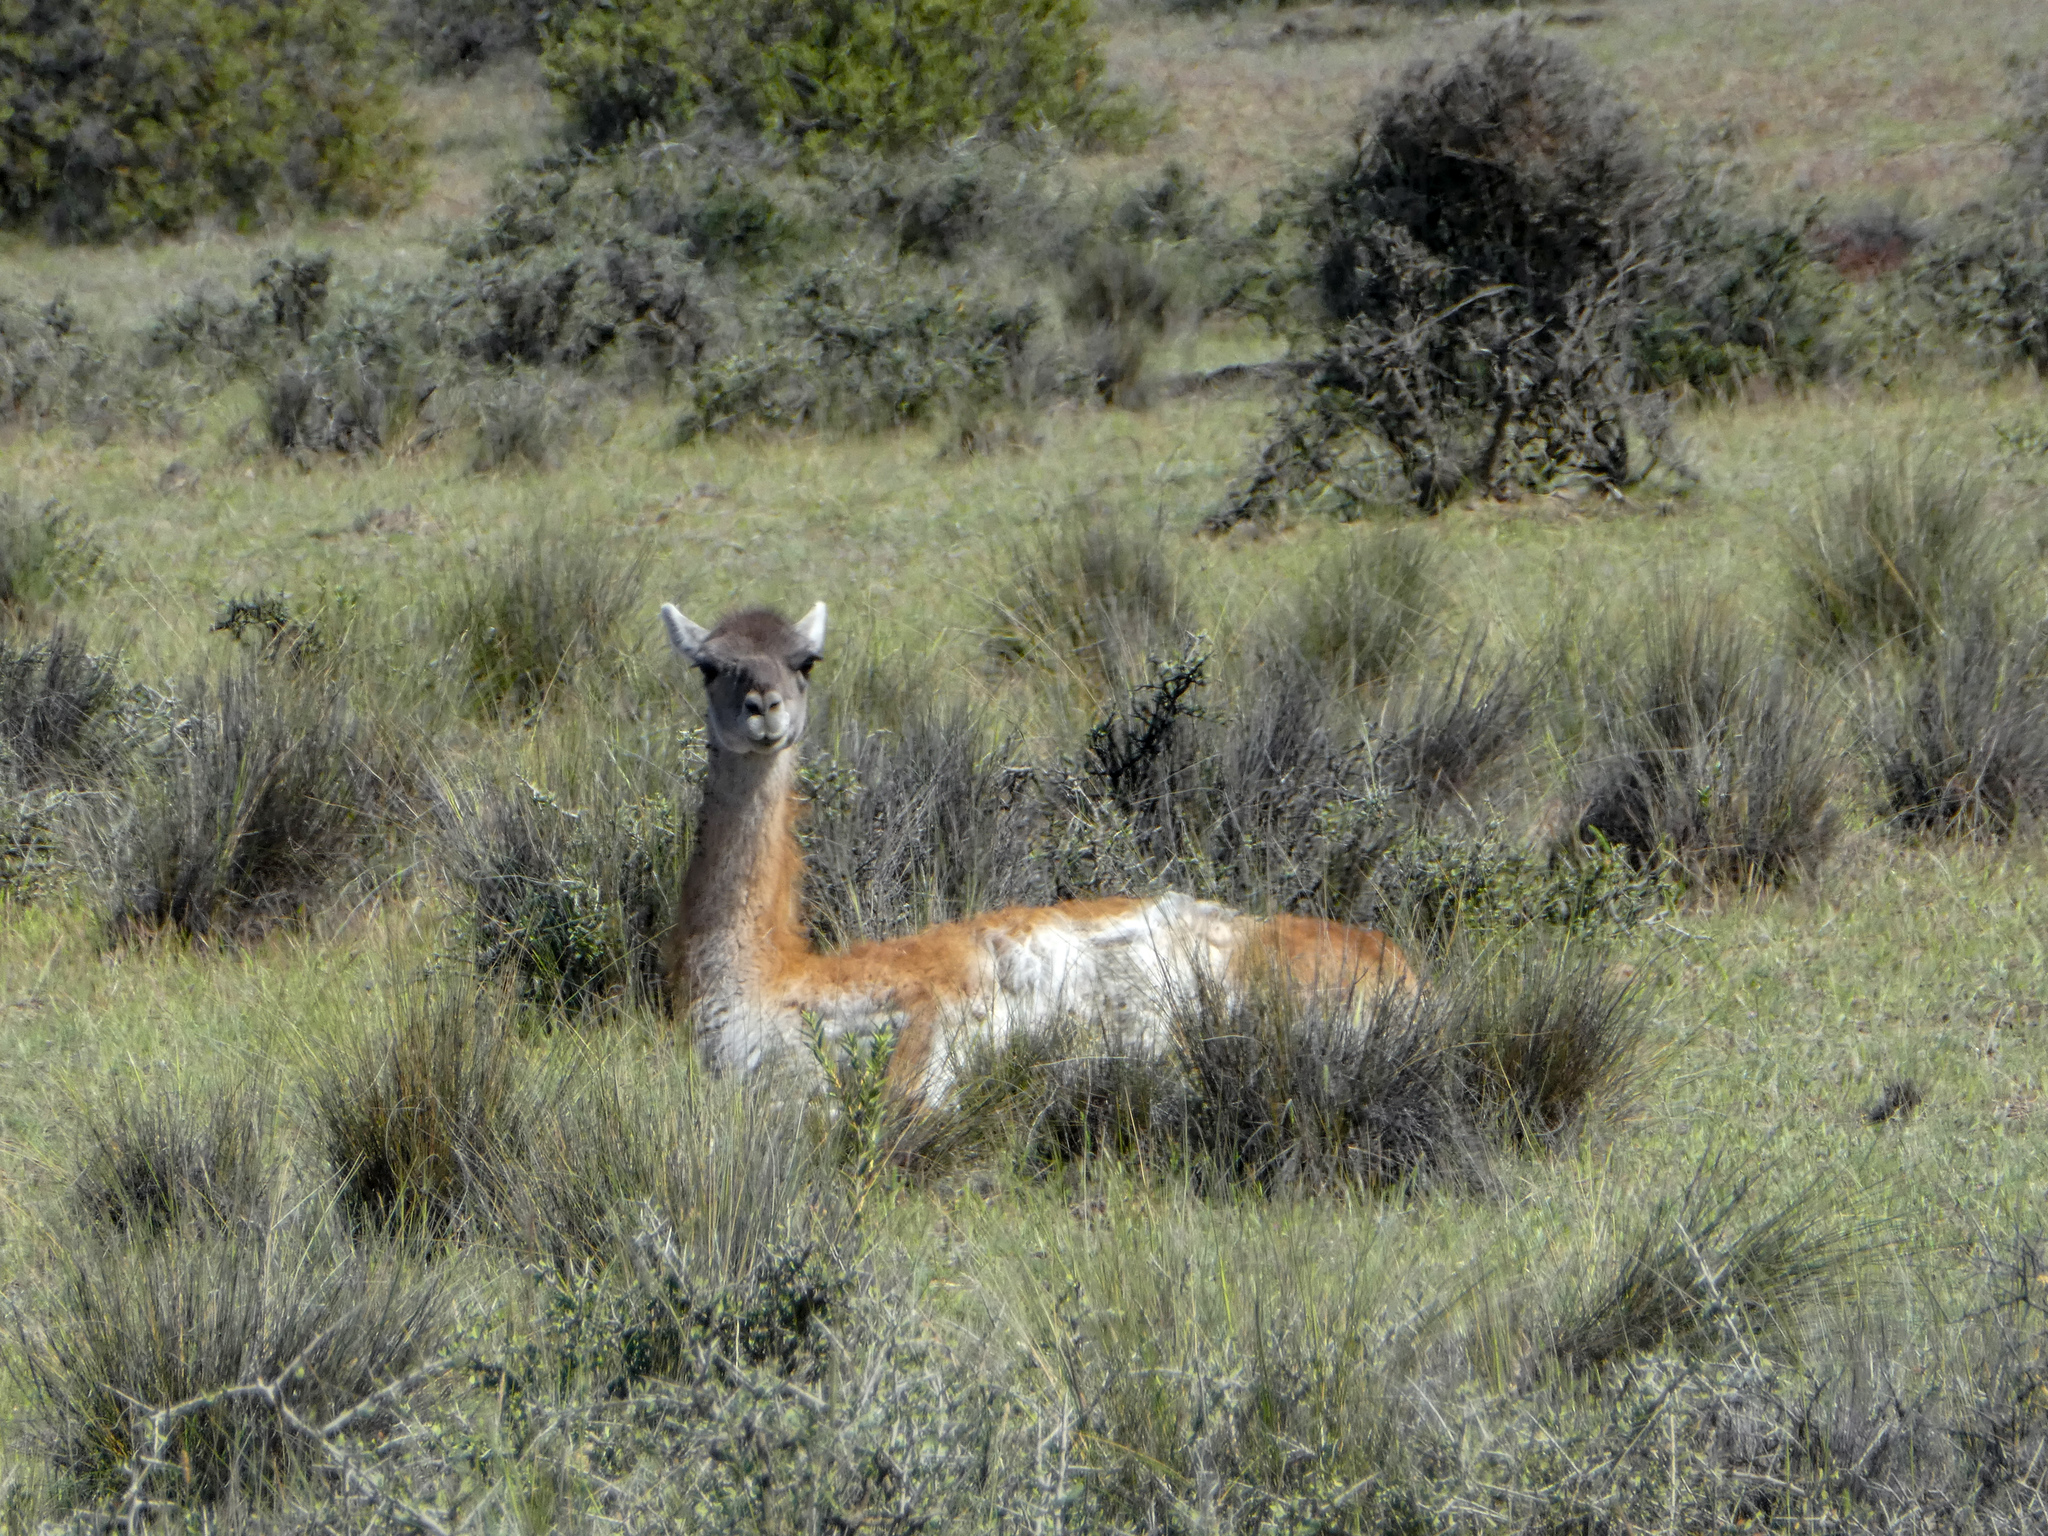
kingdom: Animalia
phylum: Chordata
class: Mammalia
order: Artiodactyla
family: Camelidae
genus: Lama
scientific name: Lama glama
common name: Llama
